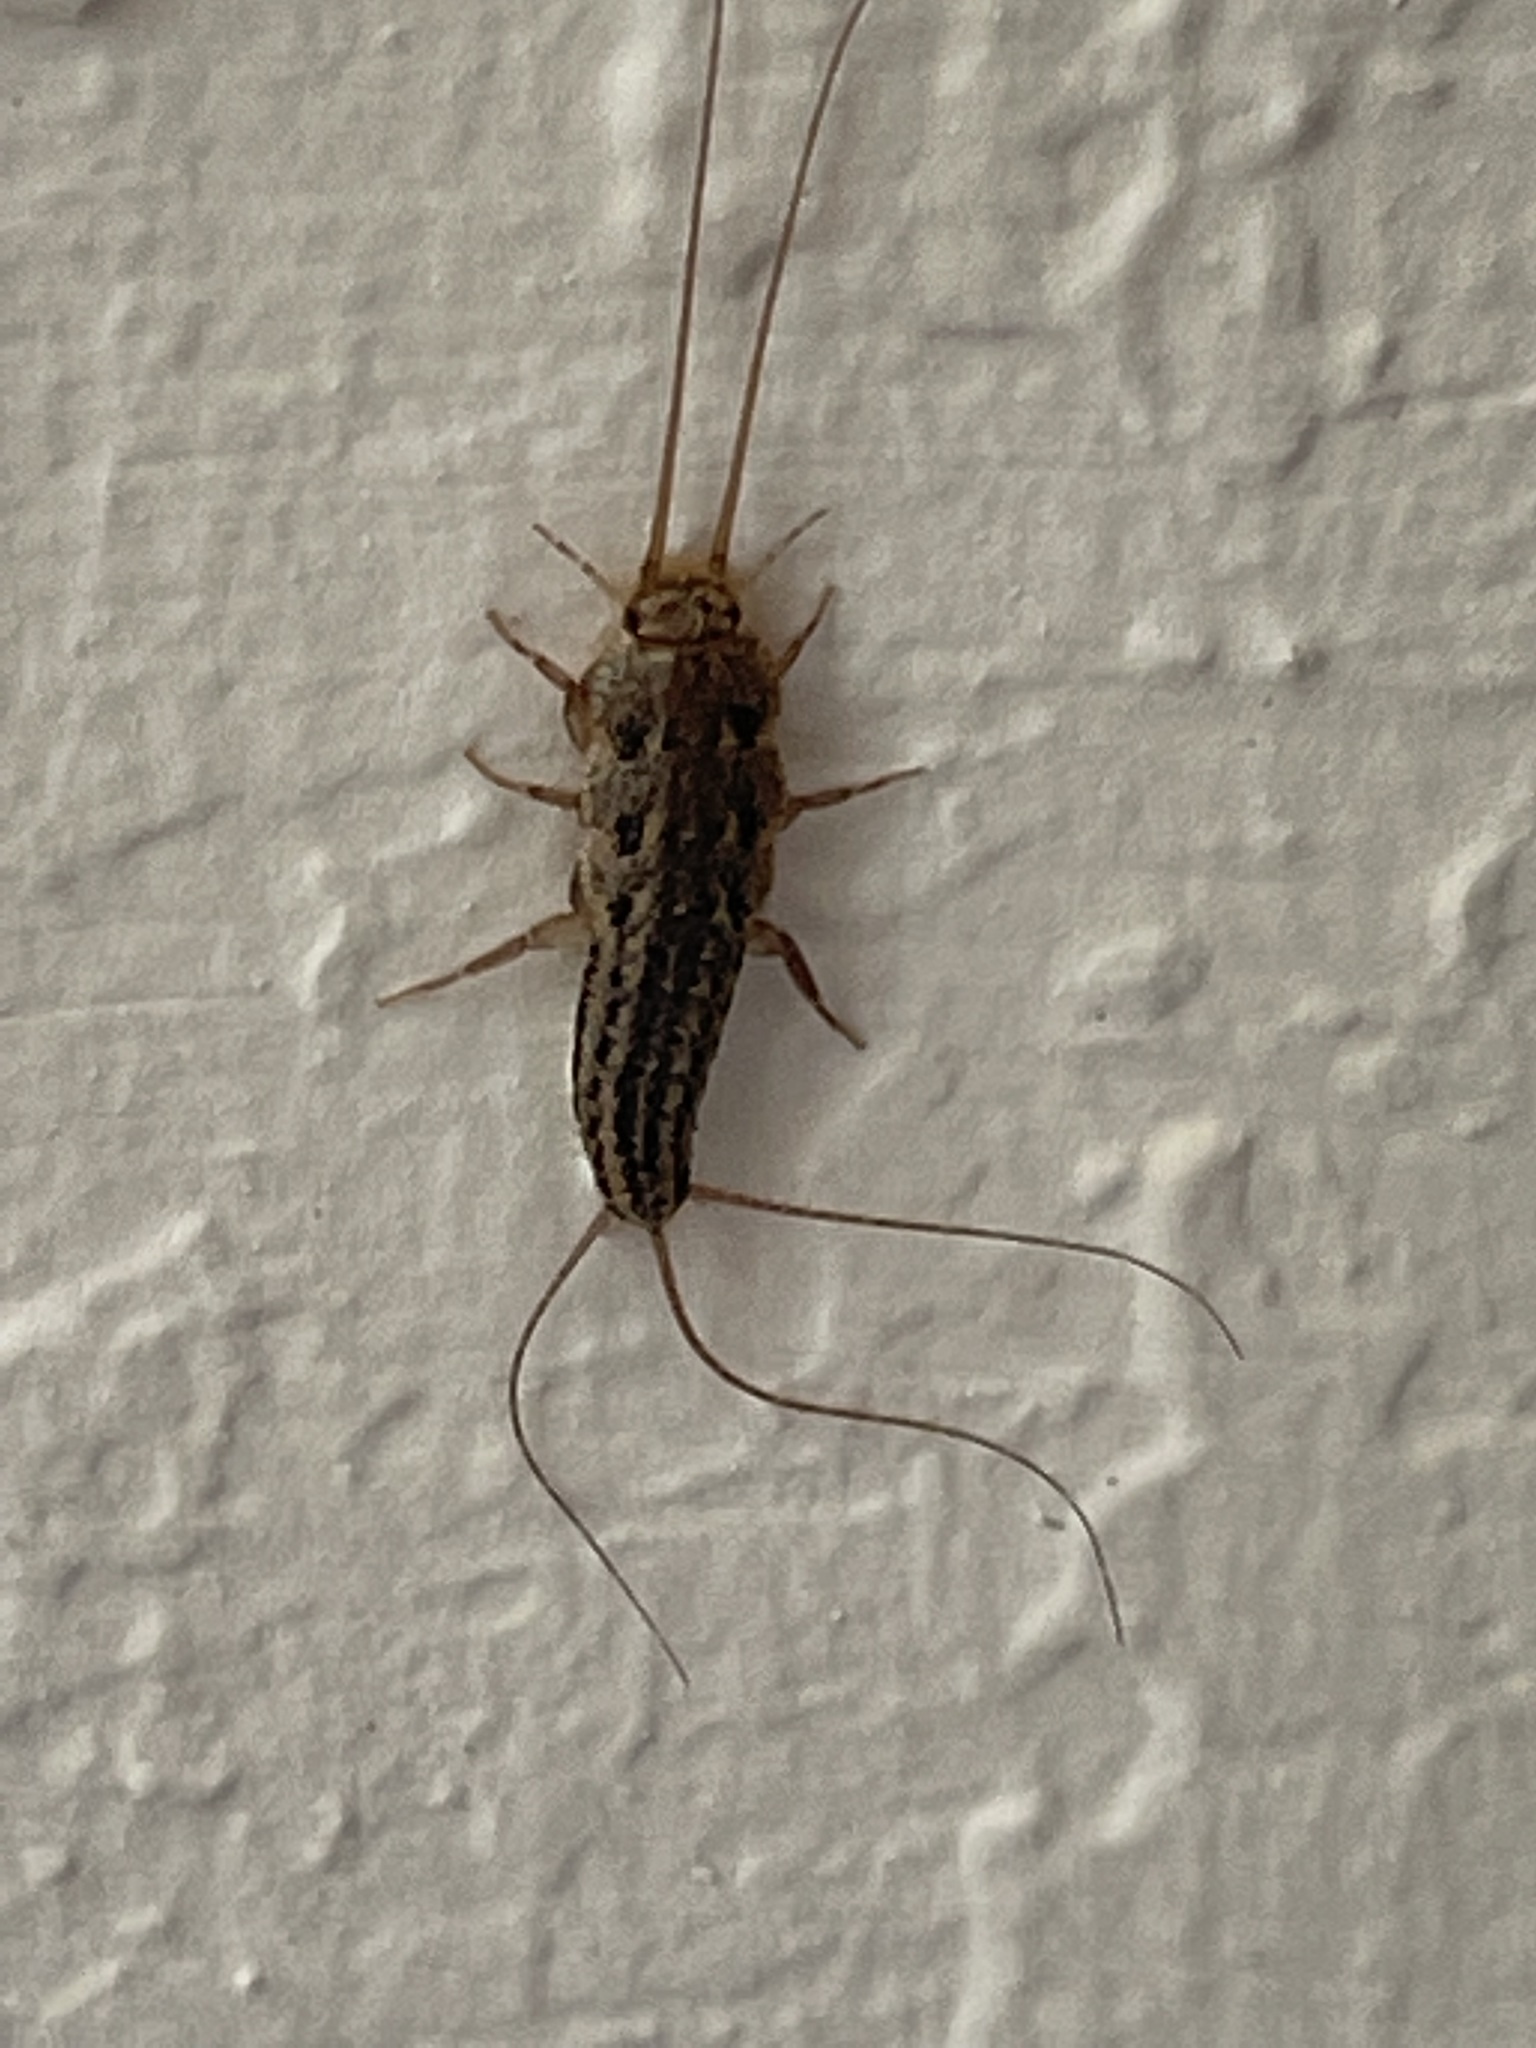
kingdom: Animalia
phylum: Arthropoda
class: Insecta
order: Zygentoma
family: Lepismatidae
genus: Ctenolepisma
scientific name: Ctenolepisma lineata
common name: Four-lined silverfish
